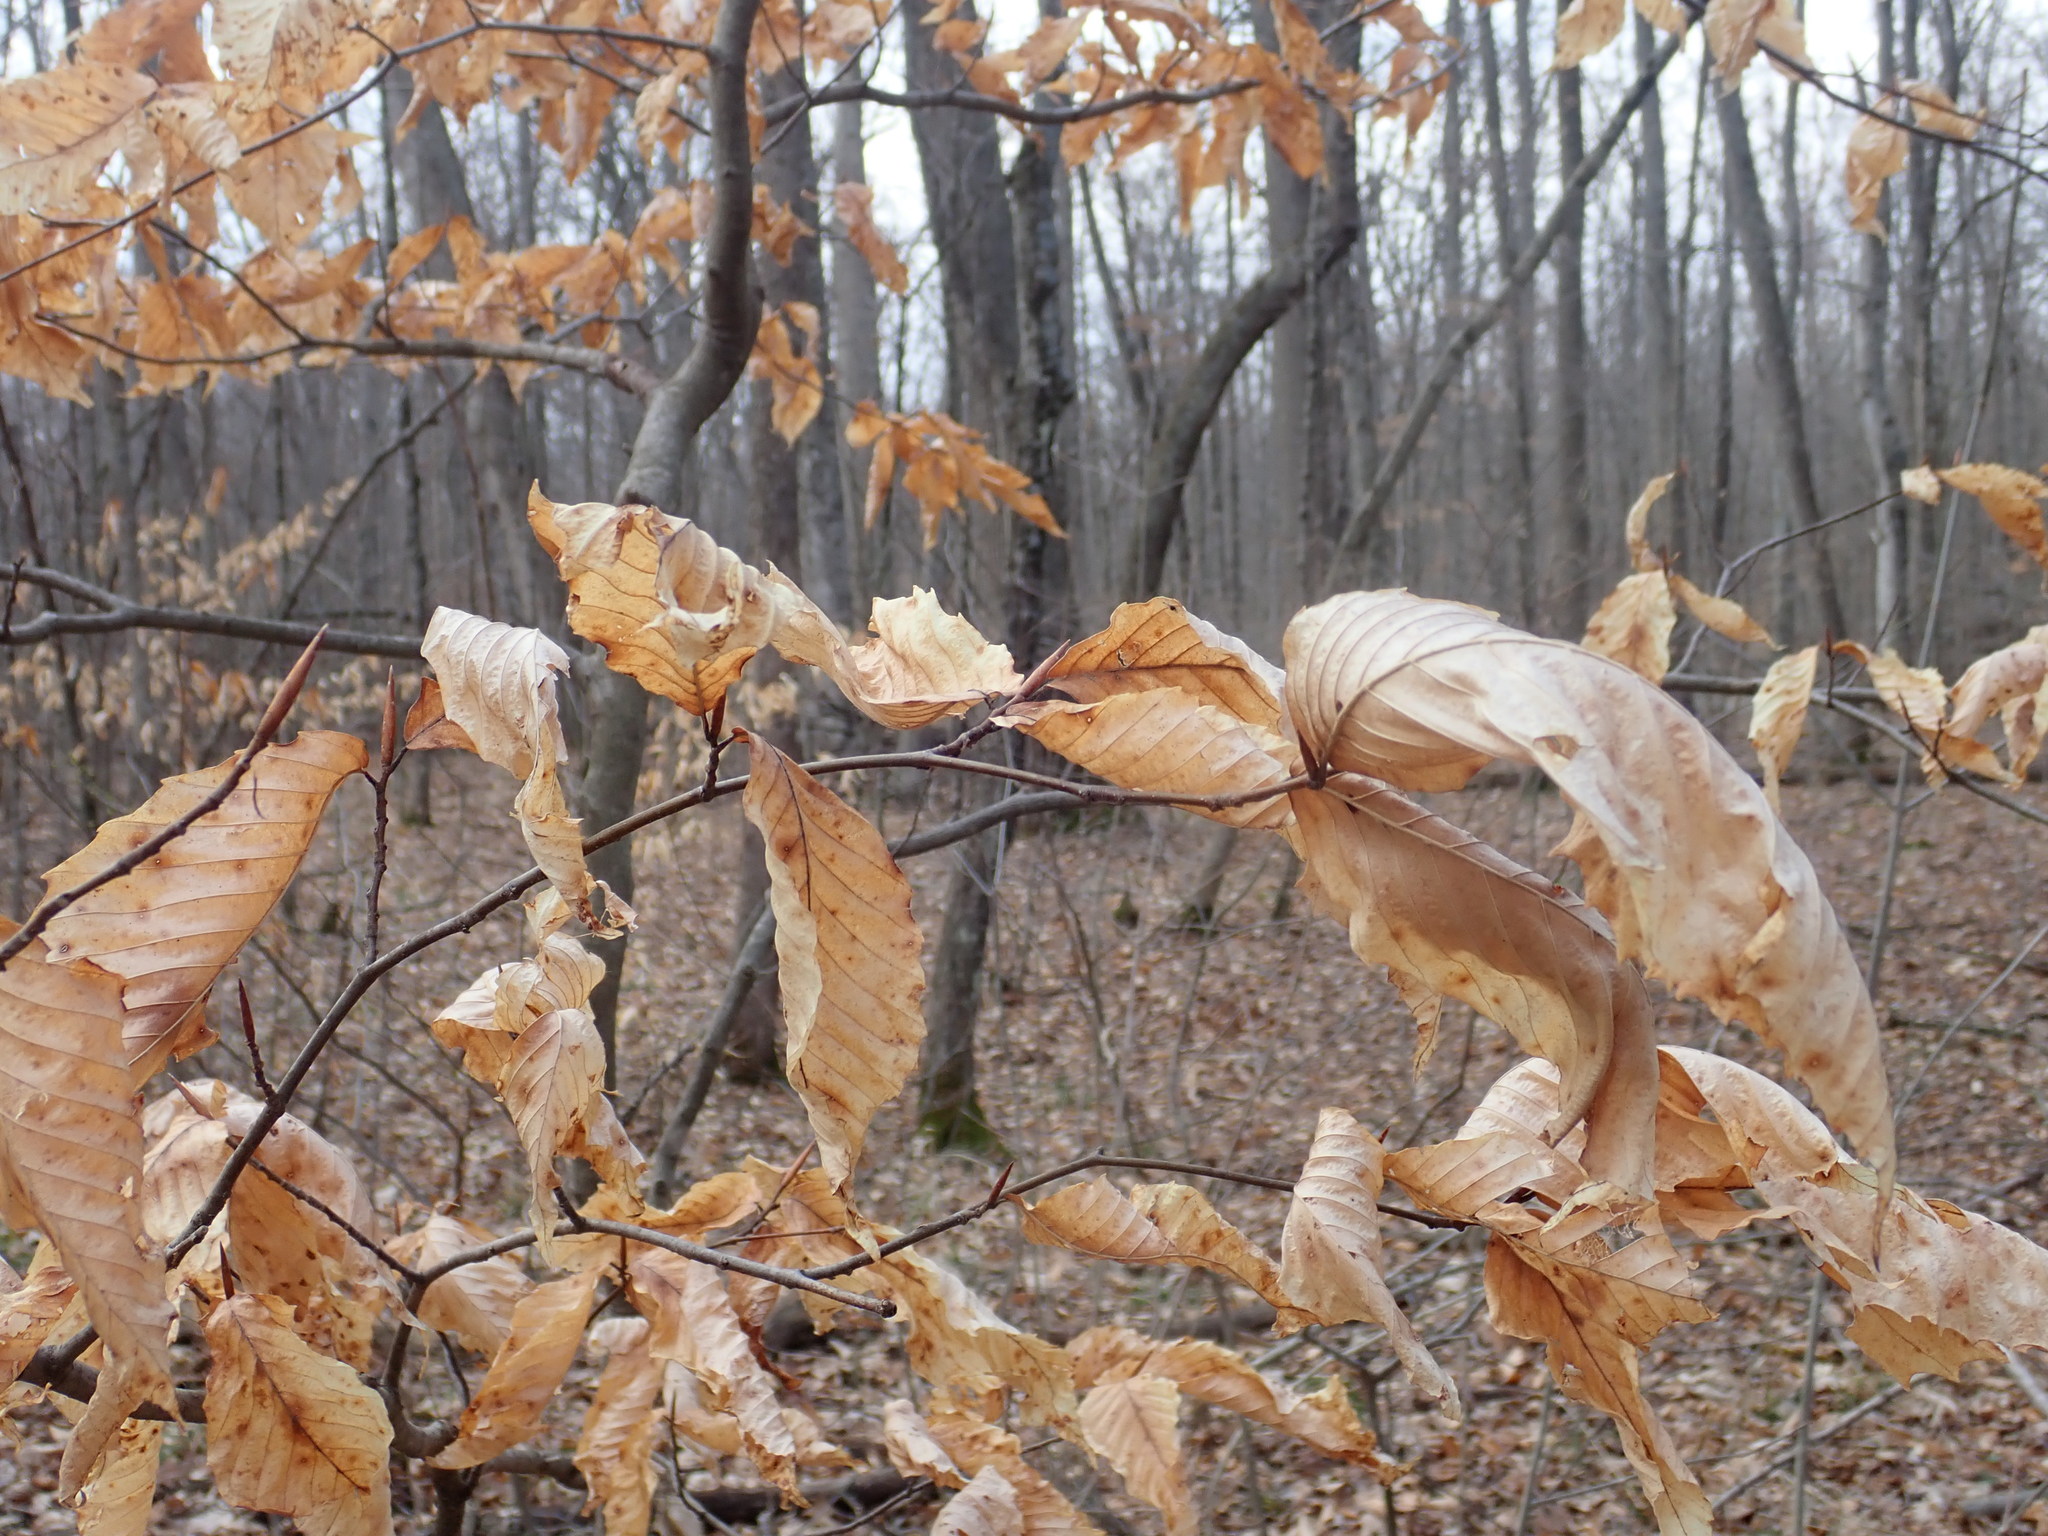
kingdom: Plantae
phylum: Tracheophyta
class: Magnoliopsida
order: Fagales
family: Fagaceae
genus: Fagus
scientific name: Fagus grandifolia
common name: American beech
